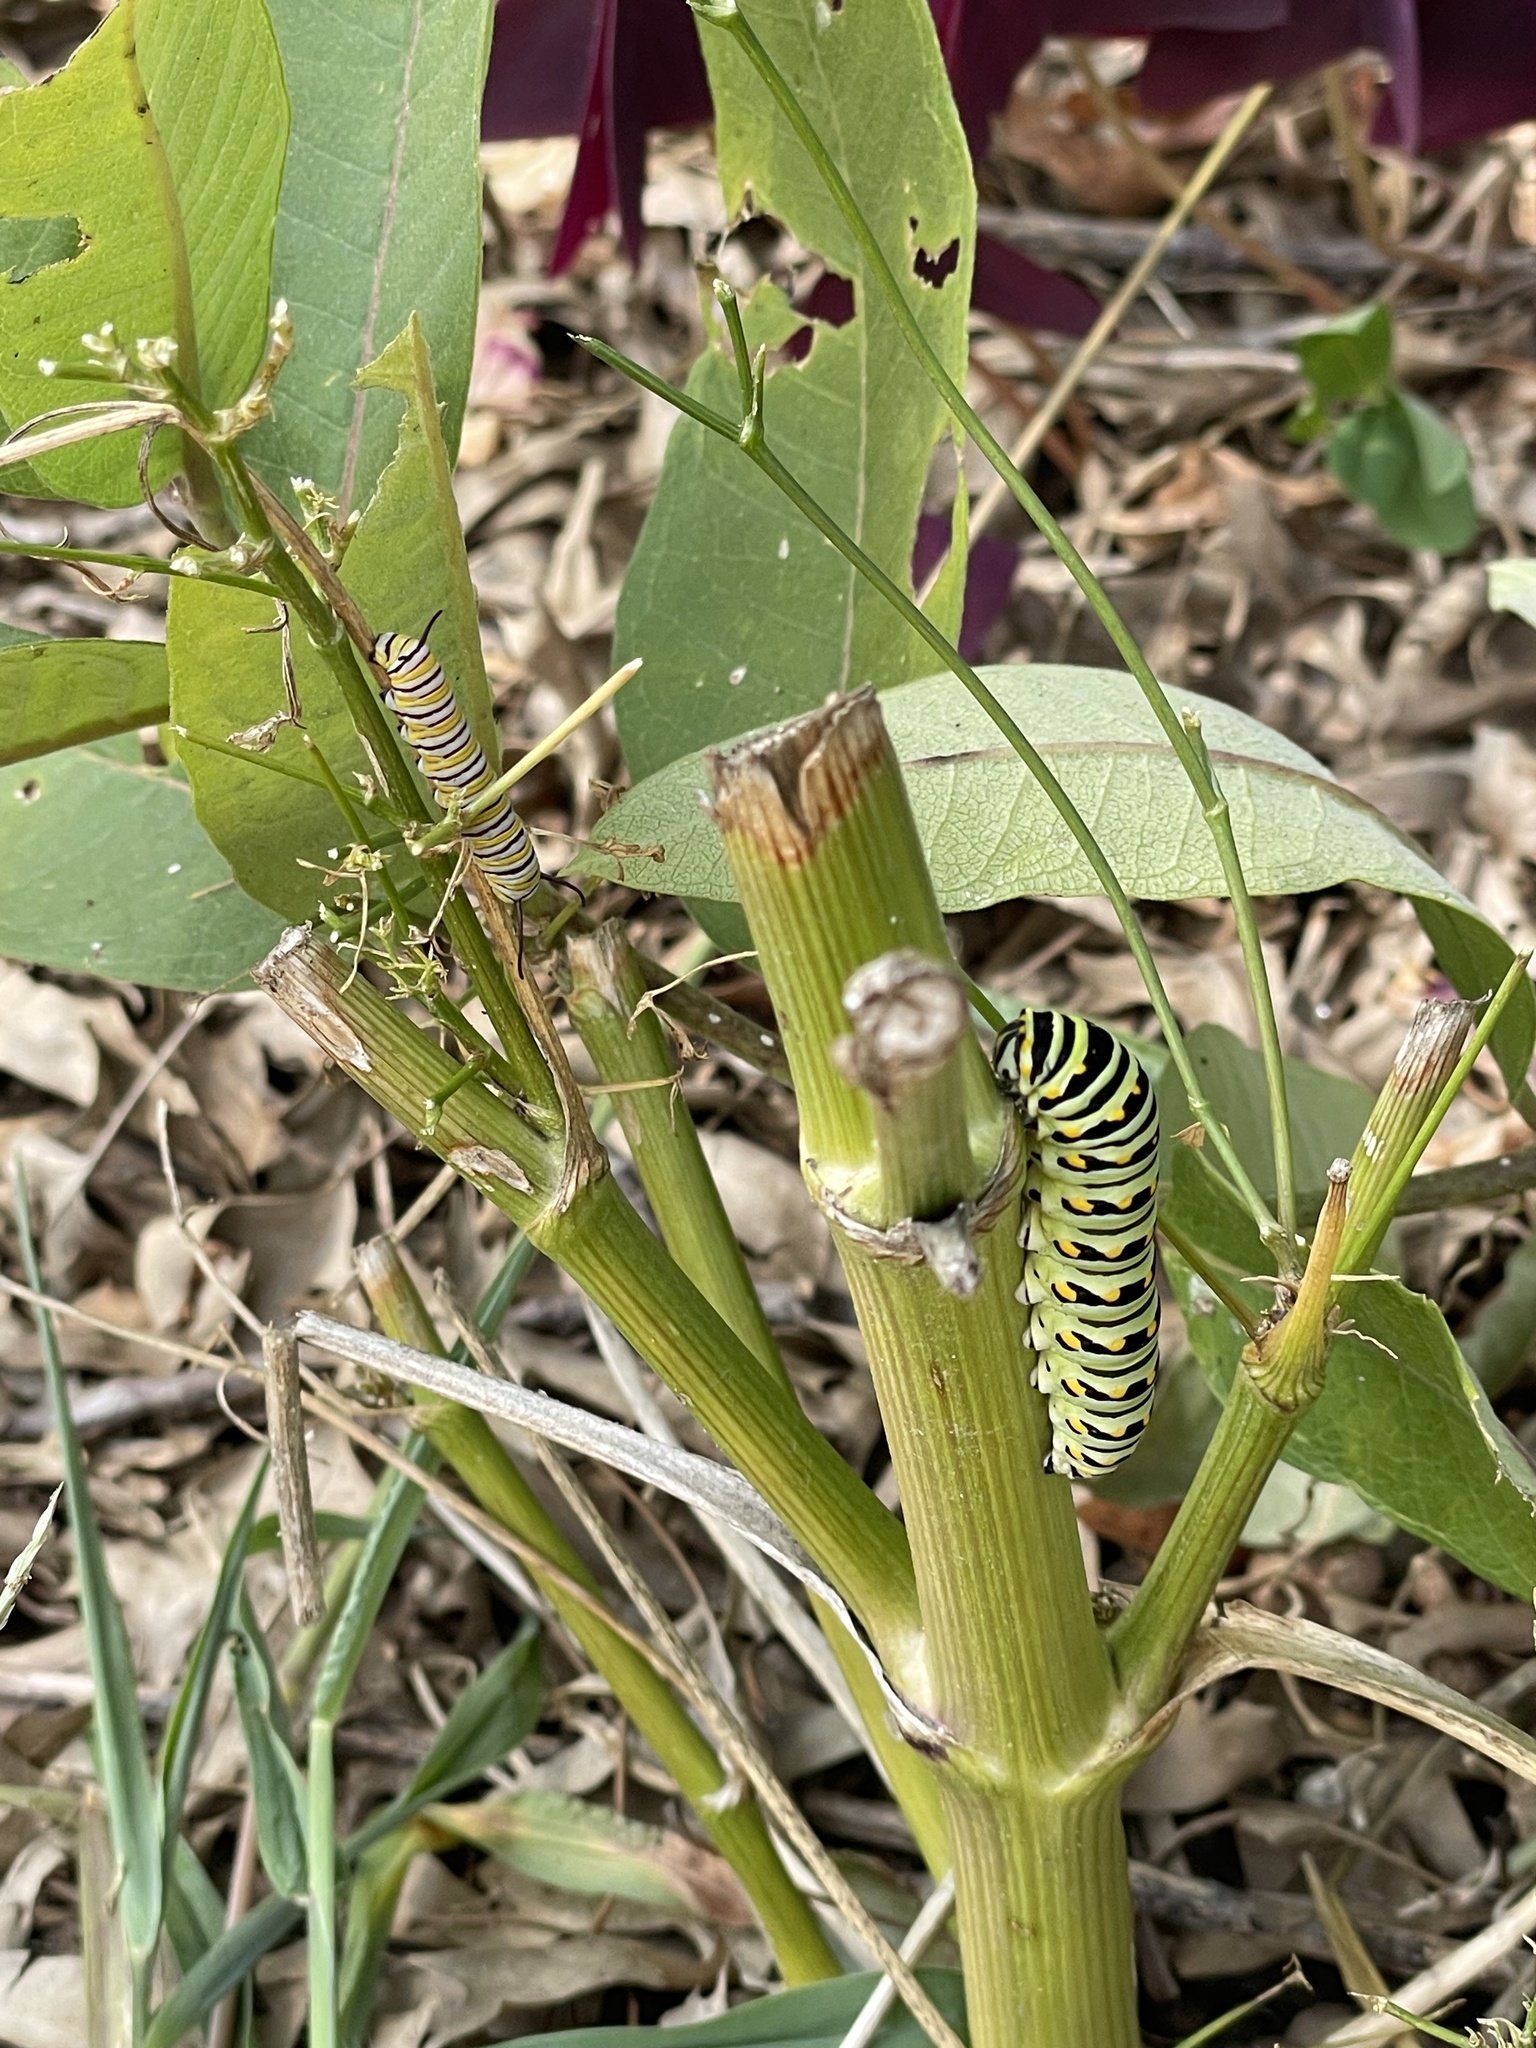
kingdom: Animalia
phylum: Arthropoda
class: Insecta
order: Lepidoptera
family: Nymphalidae
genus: Danaus
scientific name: Danaus plexippus
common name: Monarch
